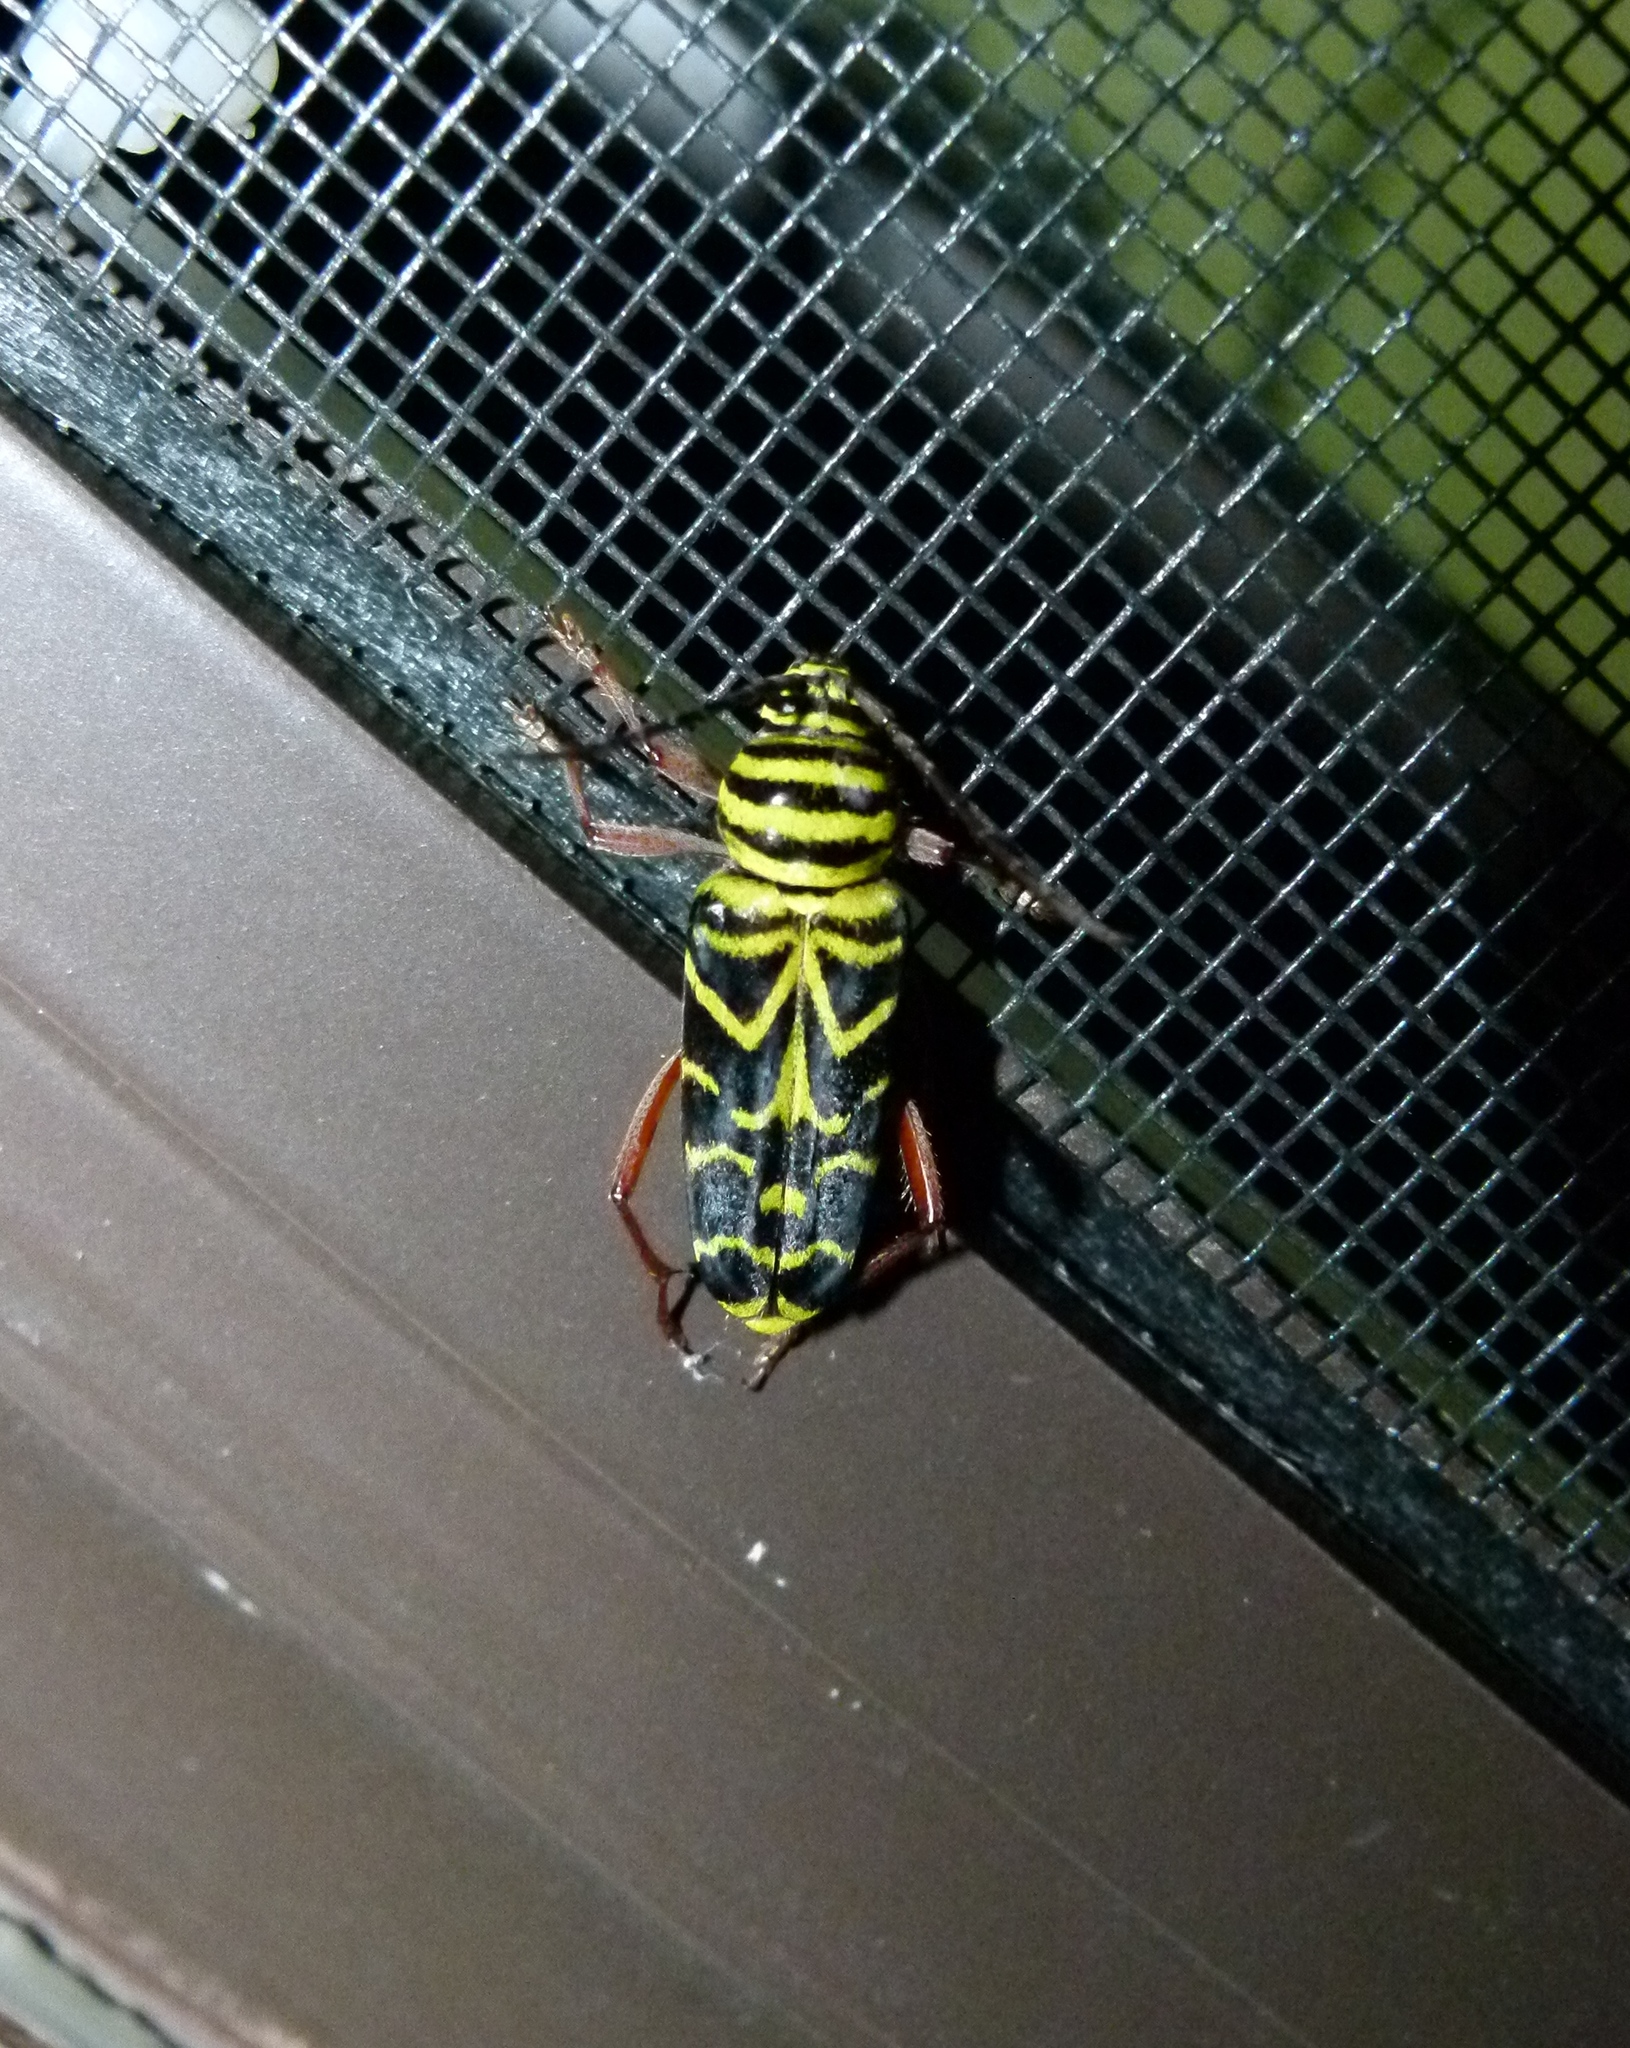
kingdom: Animalia
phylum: Arthropoda
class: Insecta
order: Coleoptera
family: Cerambycidae
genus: Megacyllene
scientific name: Megacyllene robiniae
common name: Locust borer
